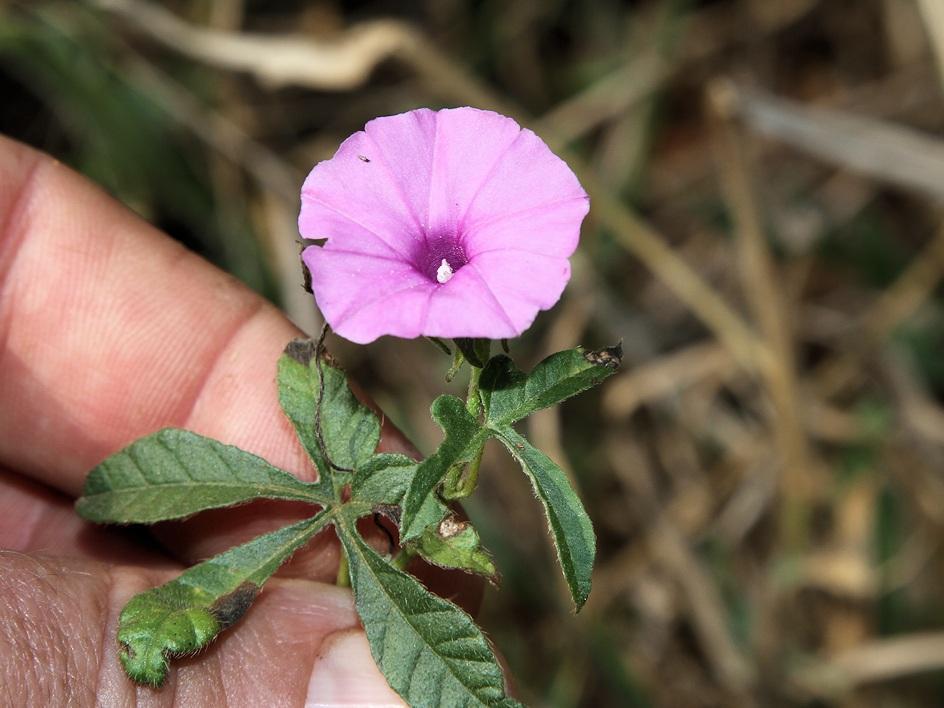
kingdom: Plantae
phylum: Tracheophyta
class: Magnoliopsida
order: Solanales
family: Convolvulaceae
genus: Ipomoea
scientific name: Ipomoea magnusiana
